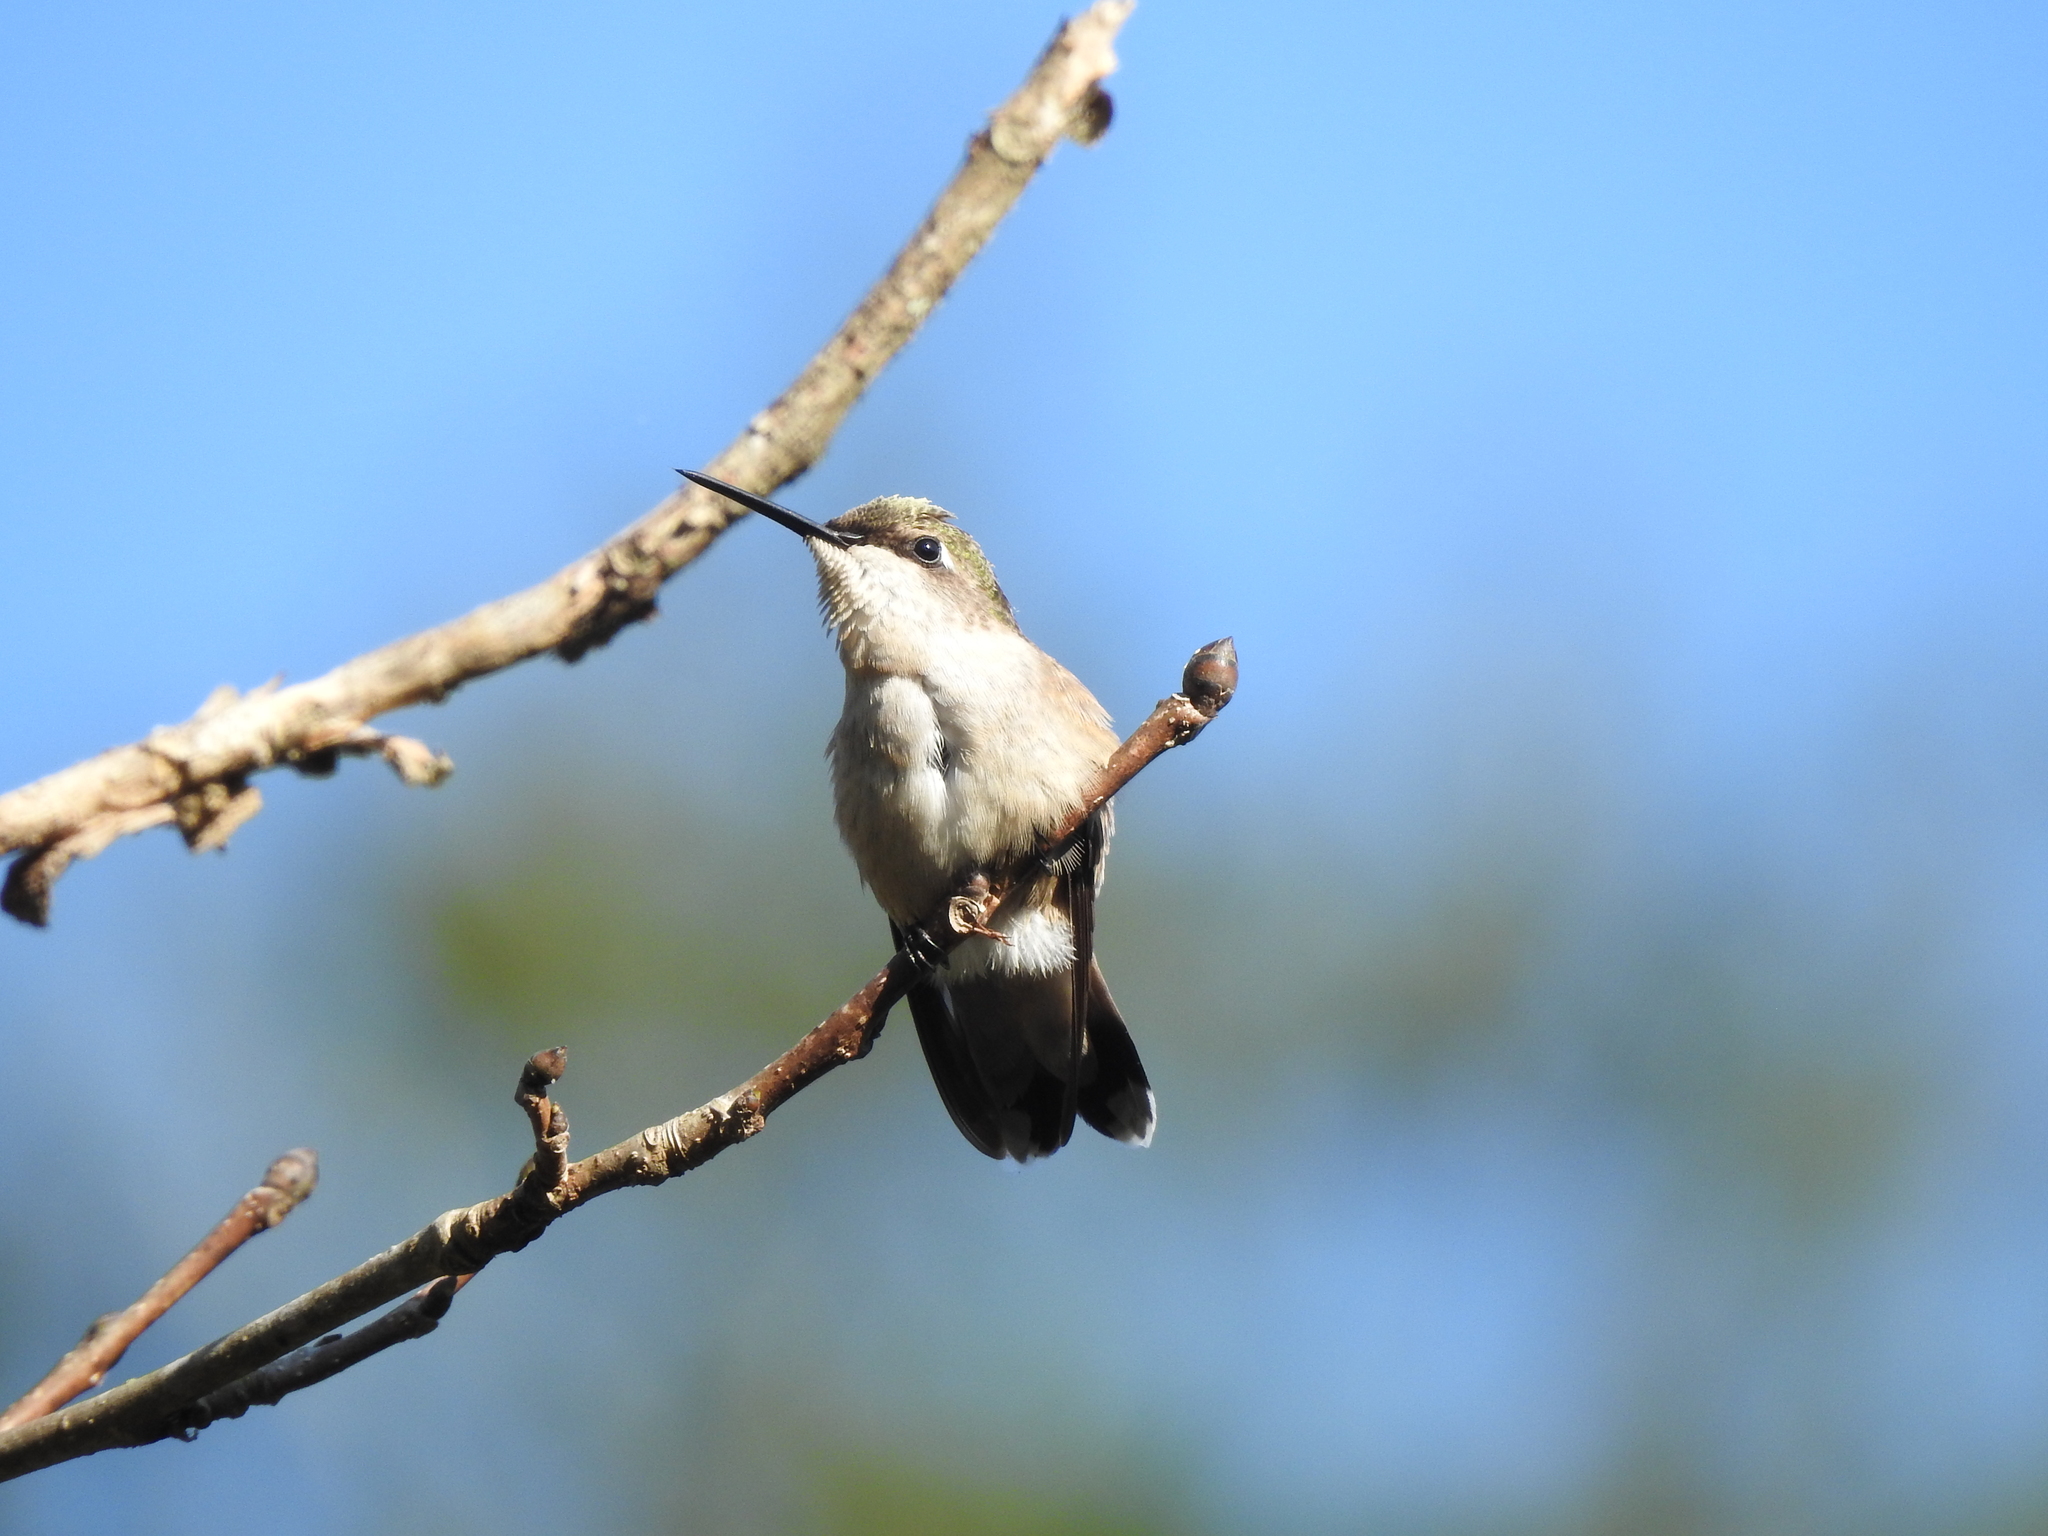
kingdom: Animalia
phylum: Chordata
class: Aves
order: Apodiformes
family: Trochilidae
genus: Archilochus
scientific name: Archilochus colubris
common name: Ruby-throated hummingbird
